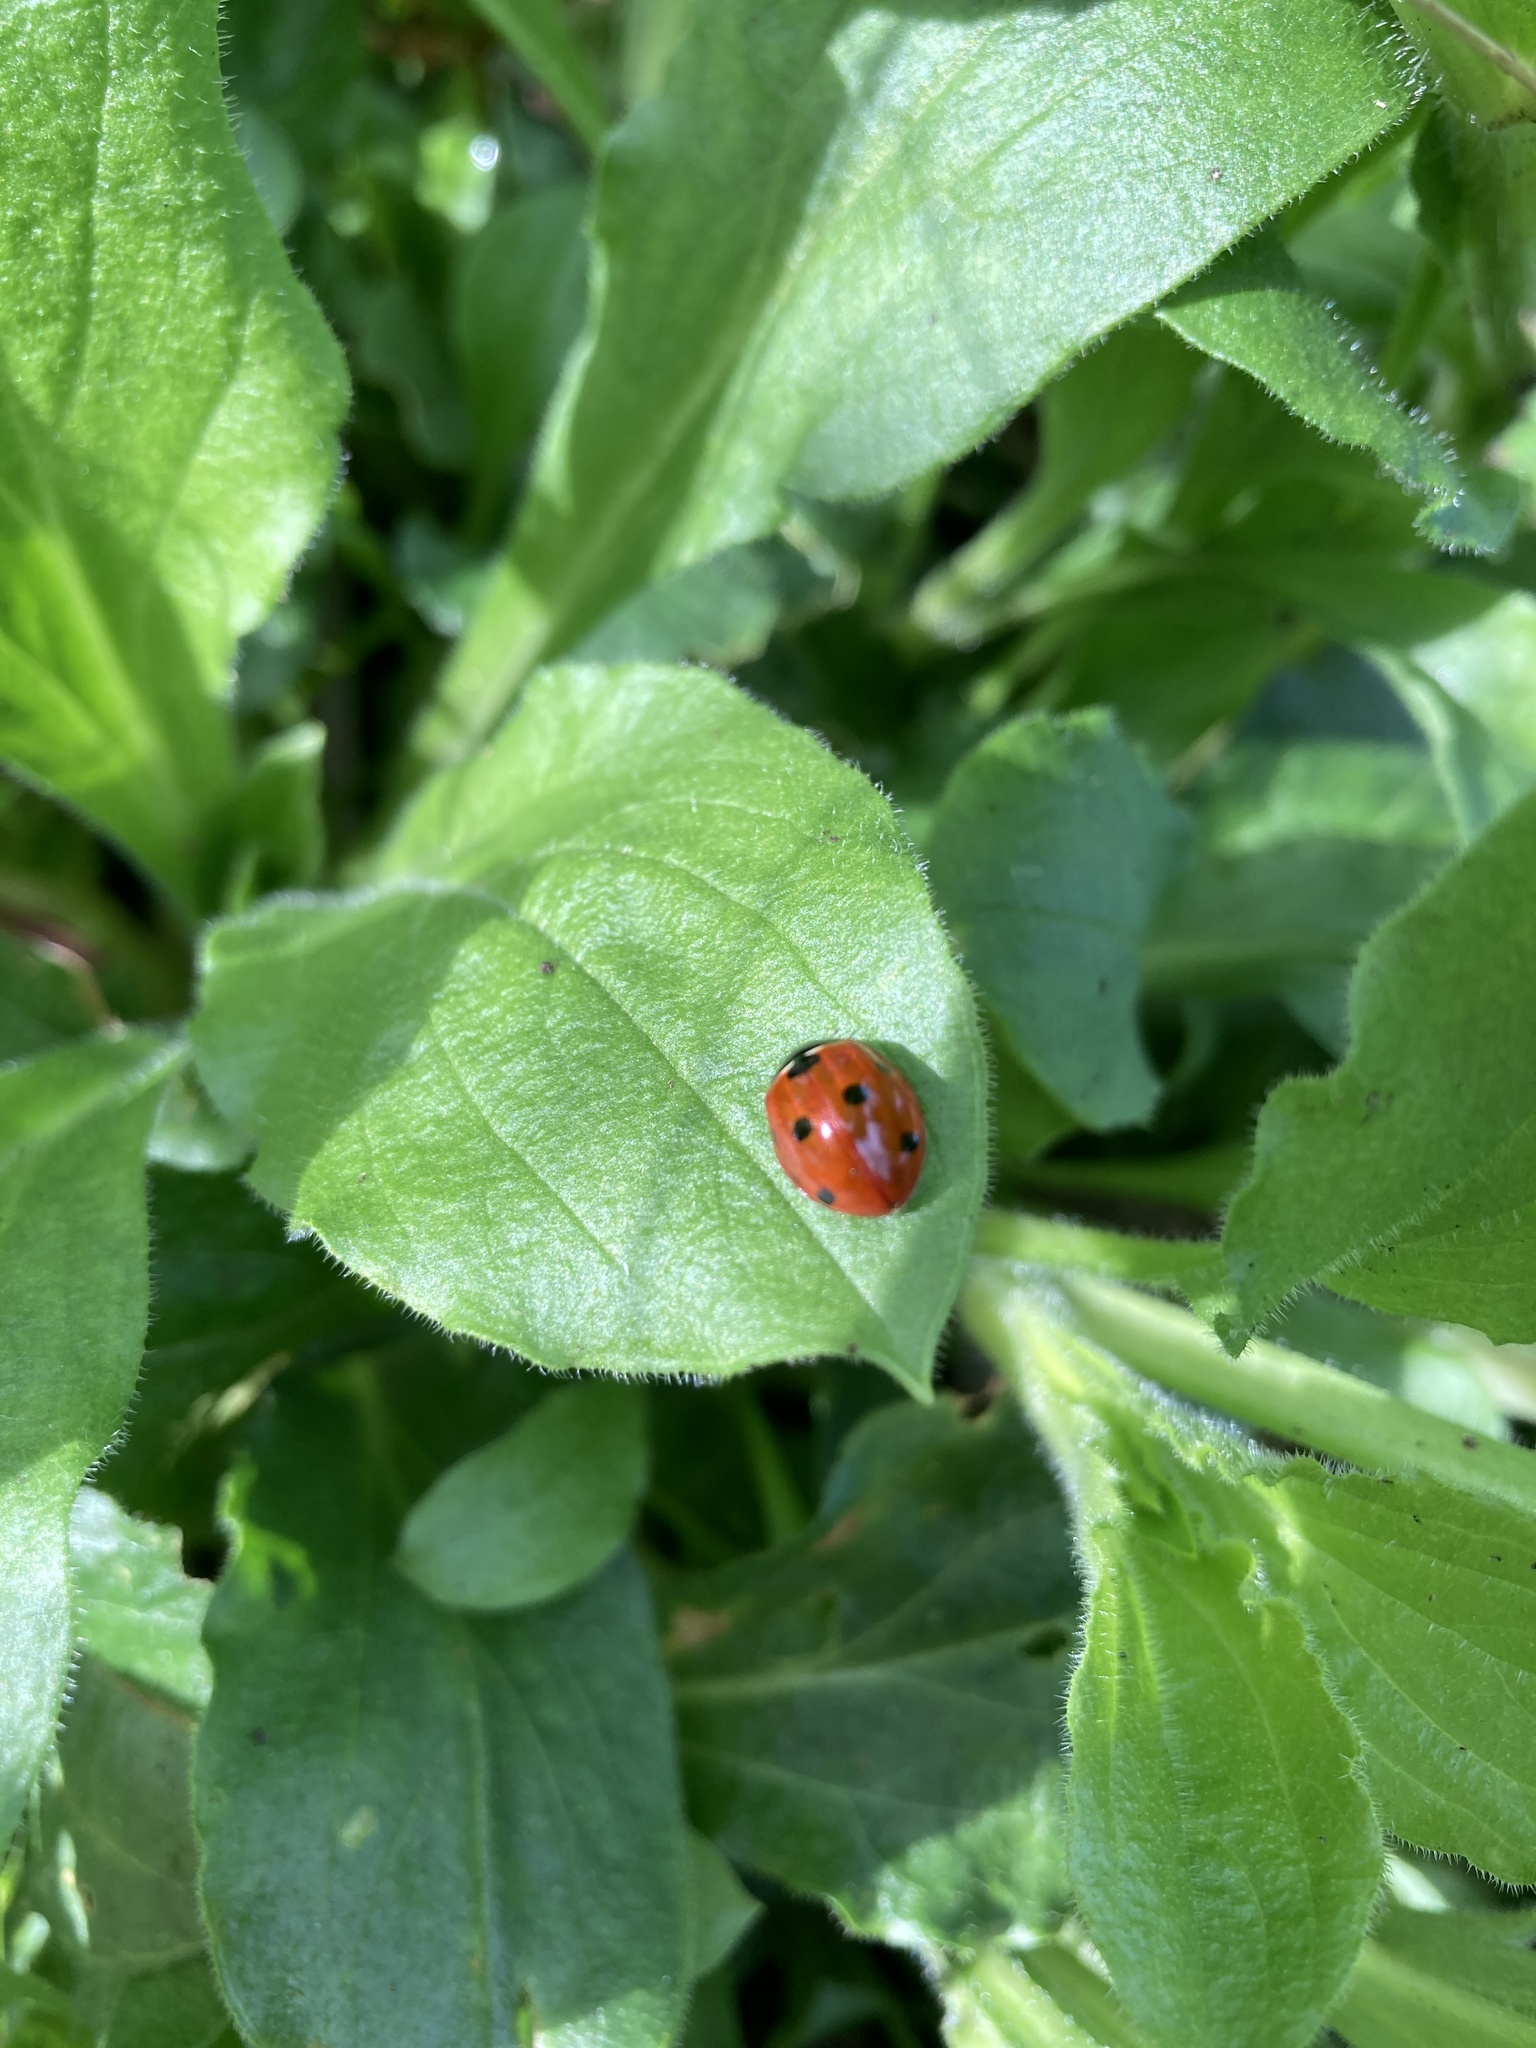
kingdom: Animalia
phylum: Arthropoda
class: Insecta
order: Coleoptera
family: Coccinellidae
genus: Coccinella
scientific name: Coccinella septempunctata
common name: Sevenspotted lady beetle
